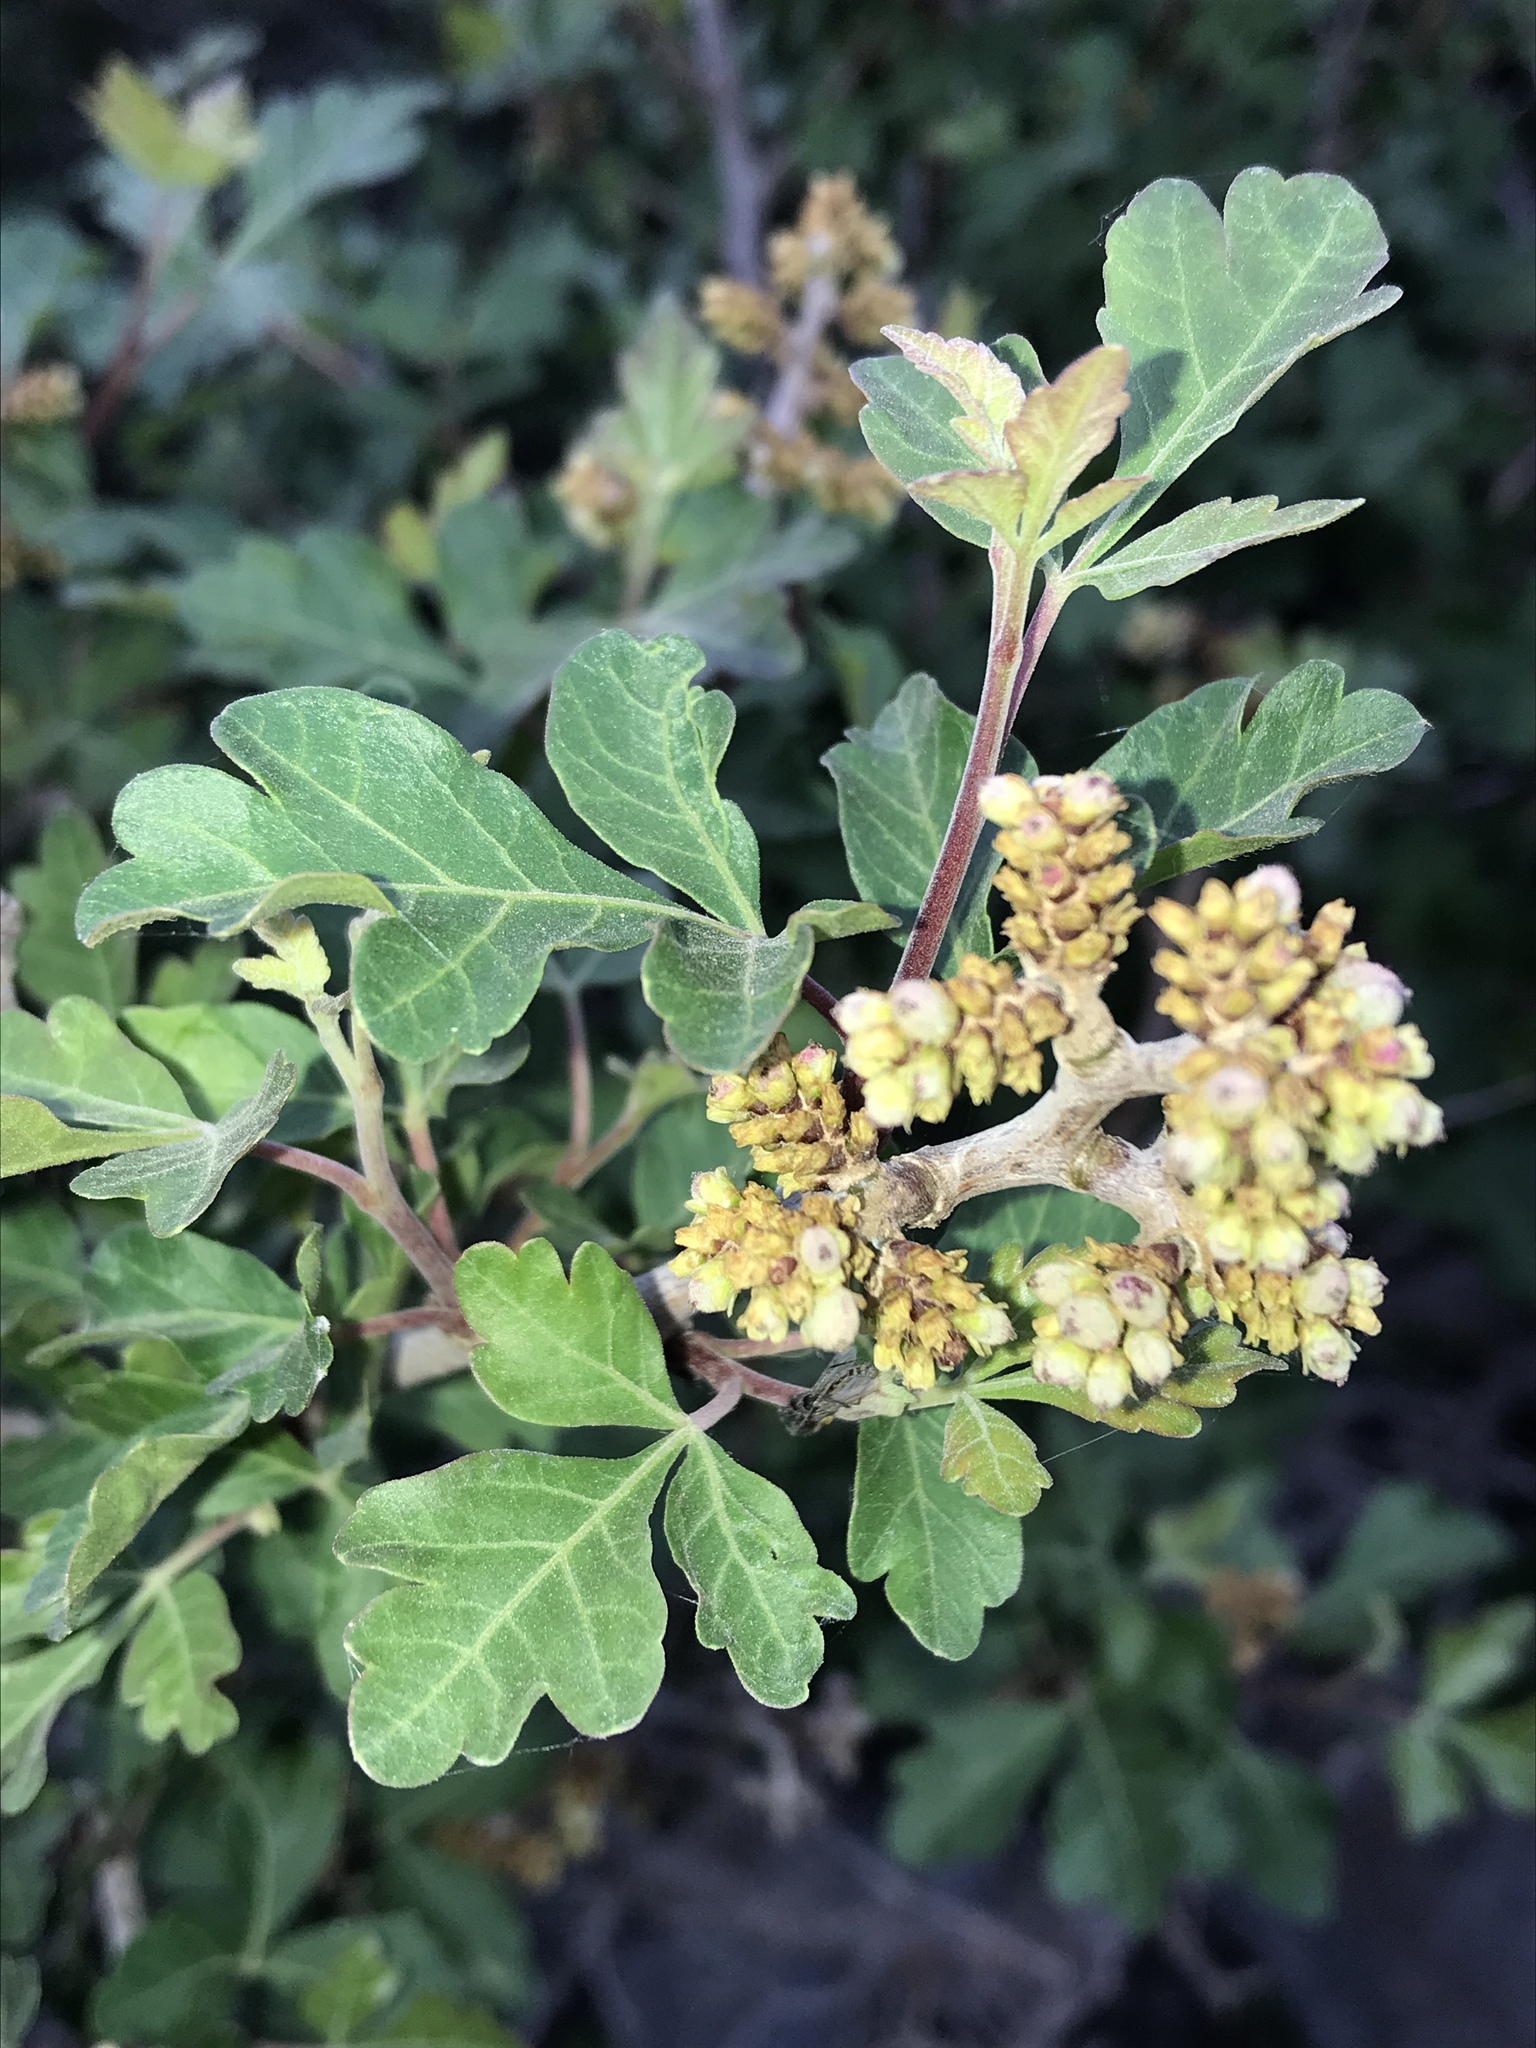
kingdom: Plantae
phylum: Tracheophyta
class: Magnoliopsida
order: Sapindales
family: Anacardiaceae
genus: Rhus
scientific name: Rhus aromatica
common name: Aromatic sumac
